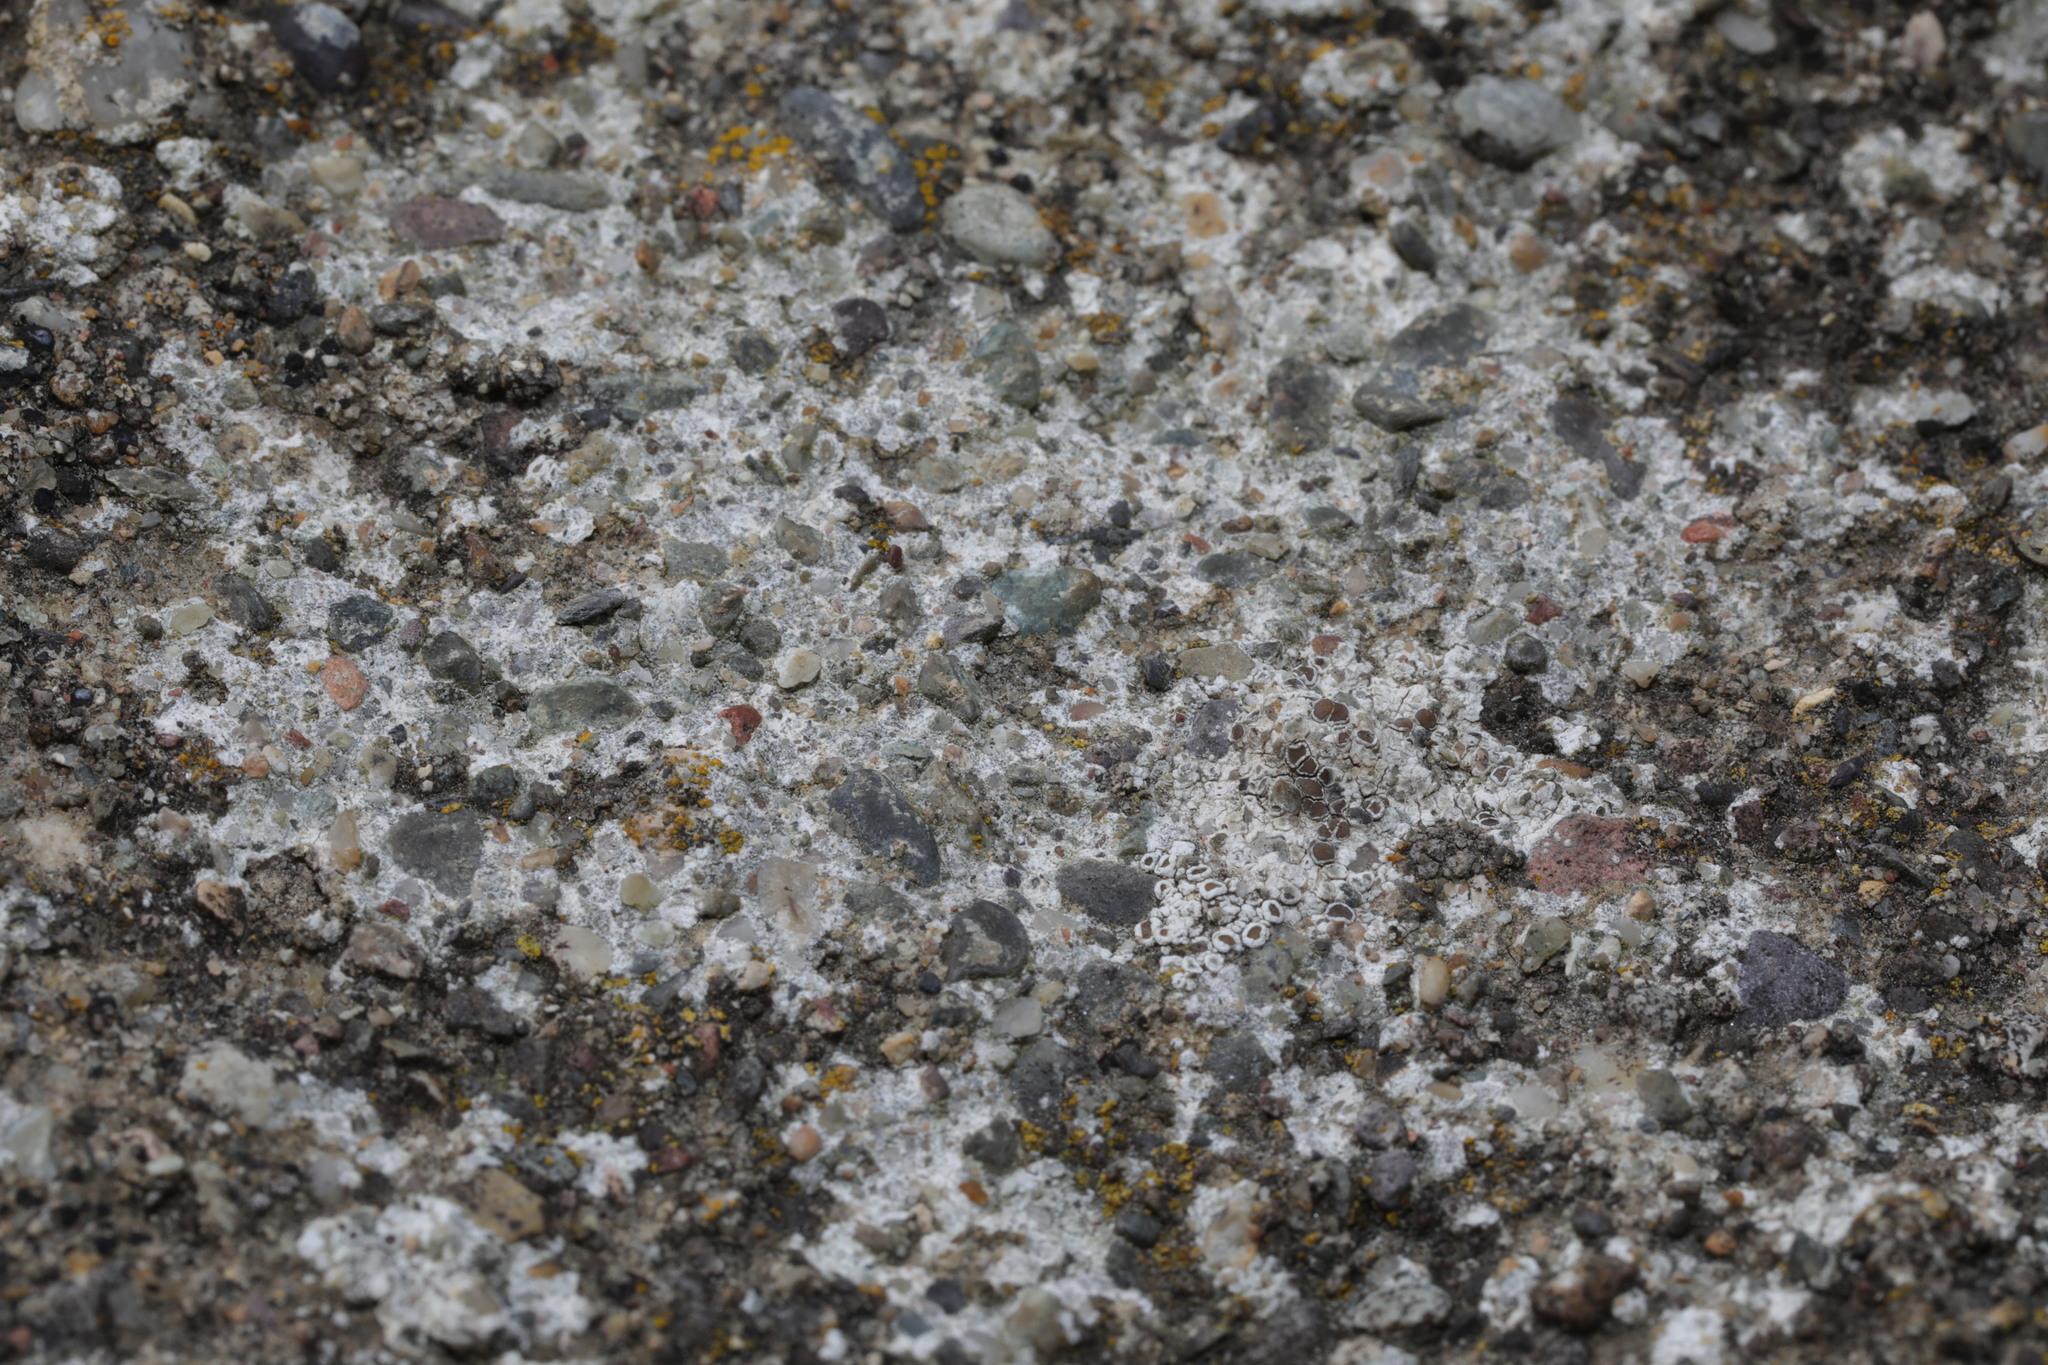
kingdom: Fungi
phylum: Ascomycota
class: Lecanoromycetes
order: Lecanorales
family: Lecanoraceae
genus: Polyozosia
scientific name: Polyozosia albescens
